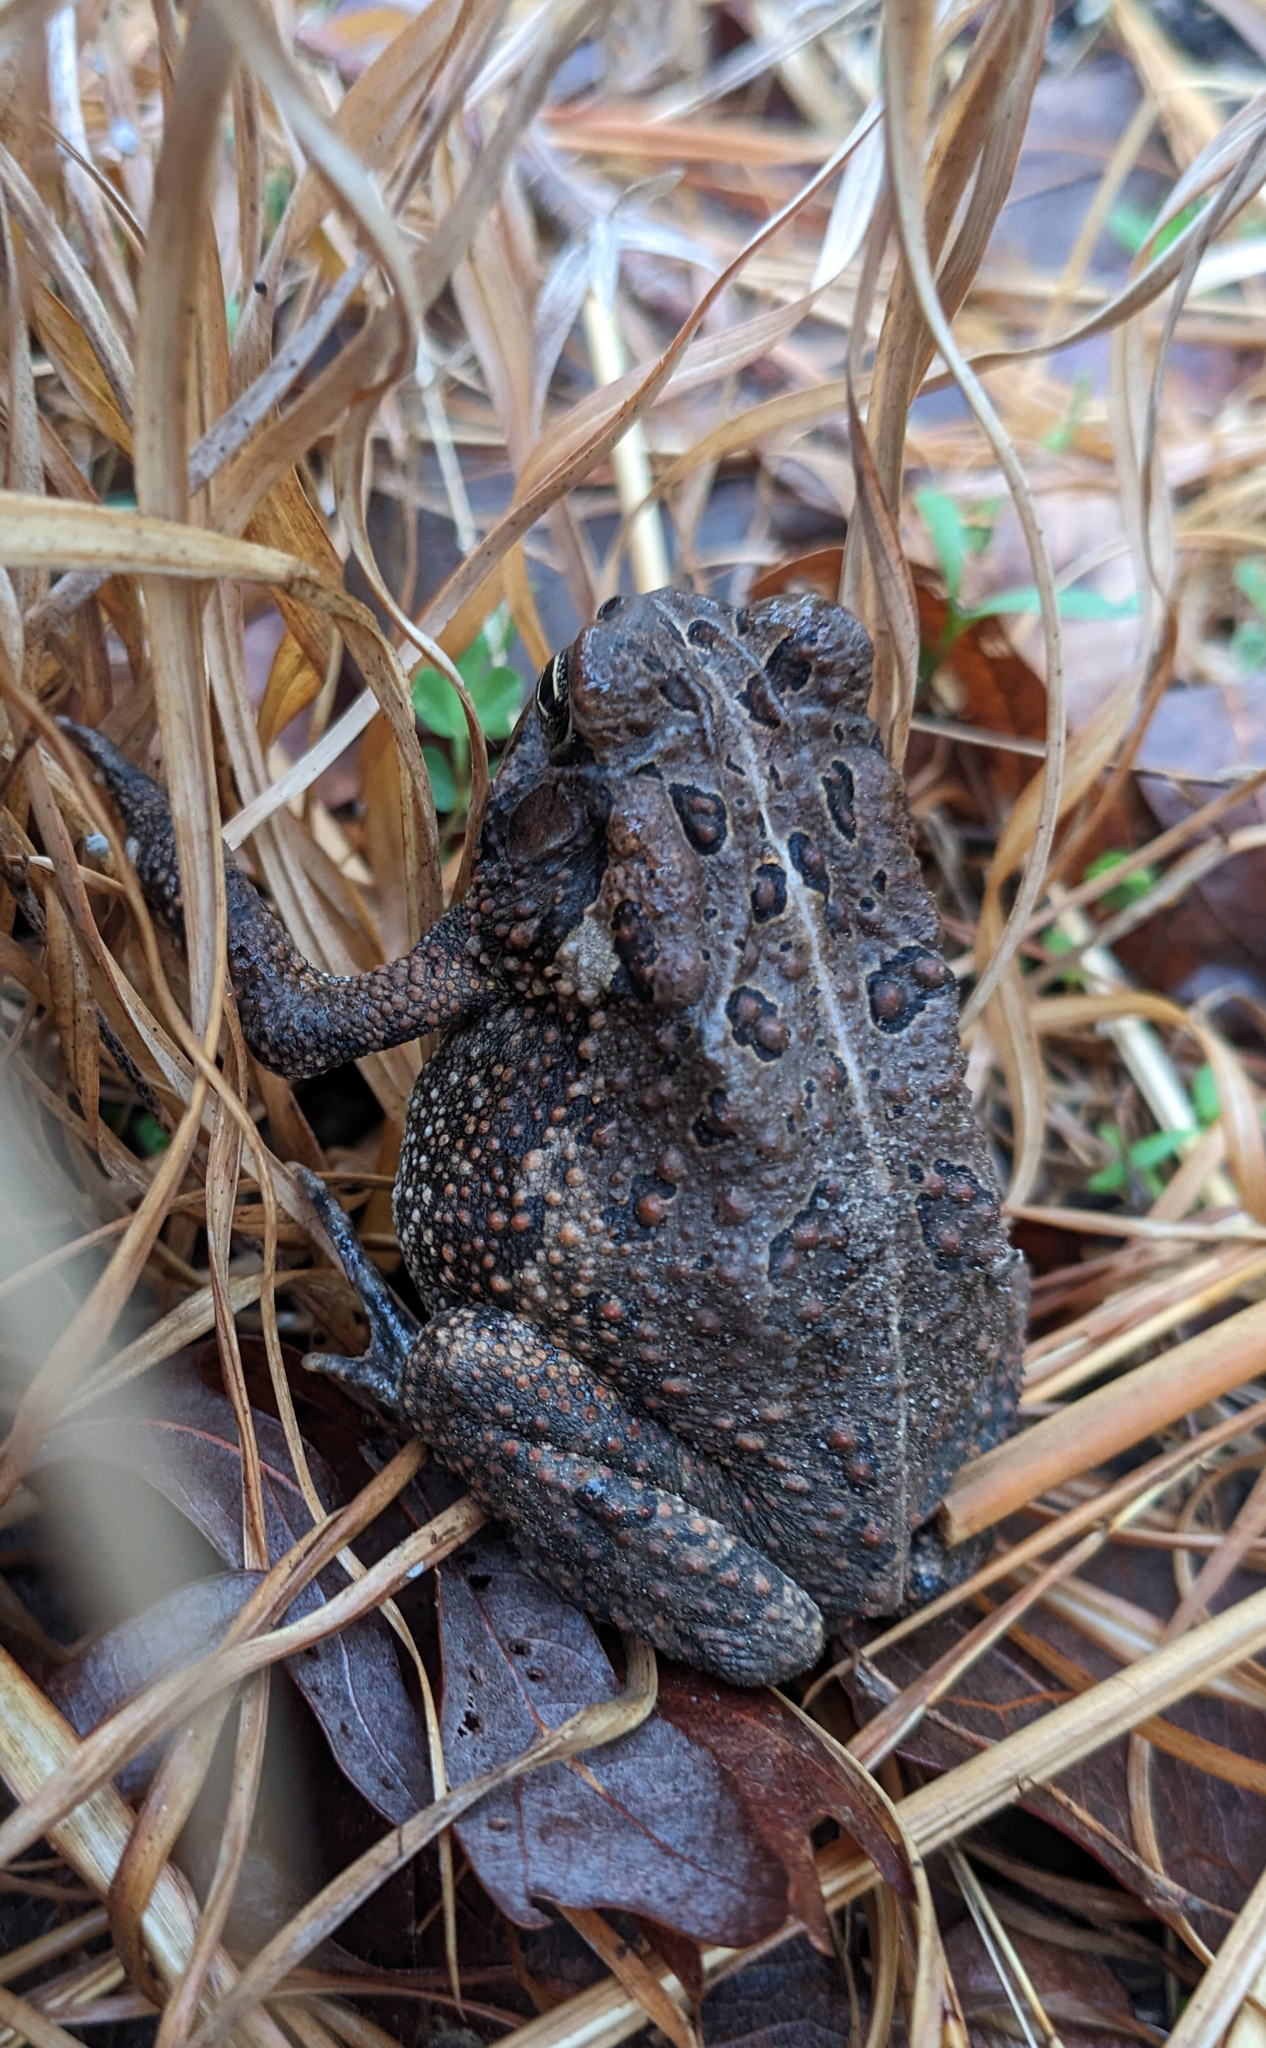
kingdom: Animalia
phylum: Chordata
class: Amphibia
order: Anura
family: Bufonidae
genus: Anaxyrus
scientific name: Anaxyrus fowleri
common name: Fowler's toad
